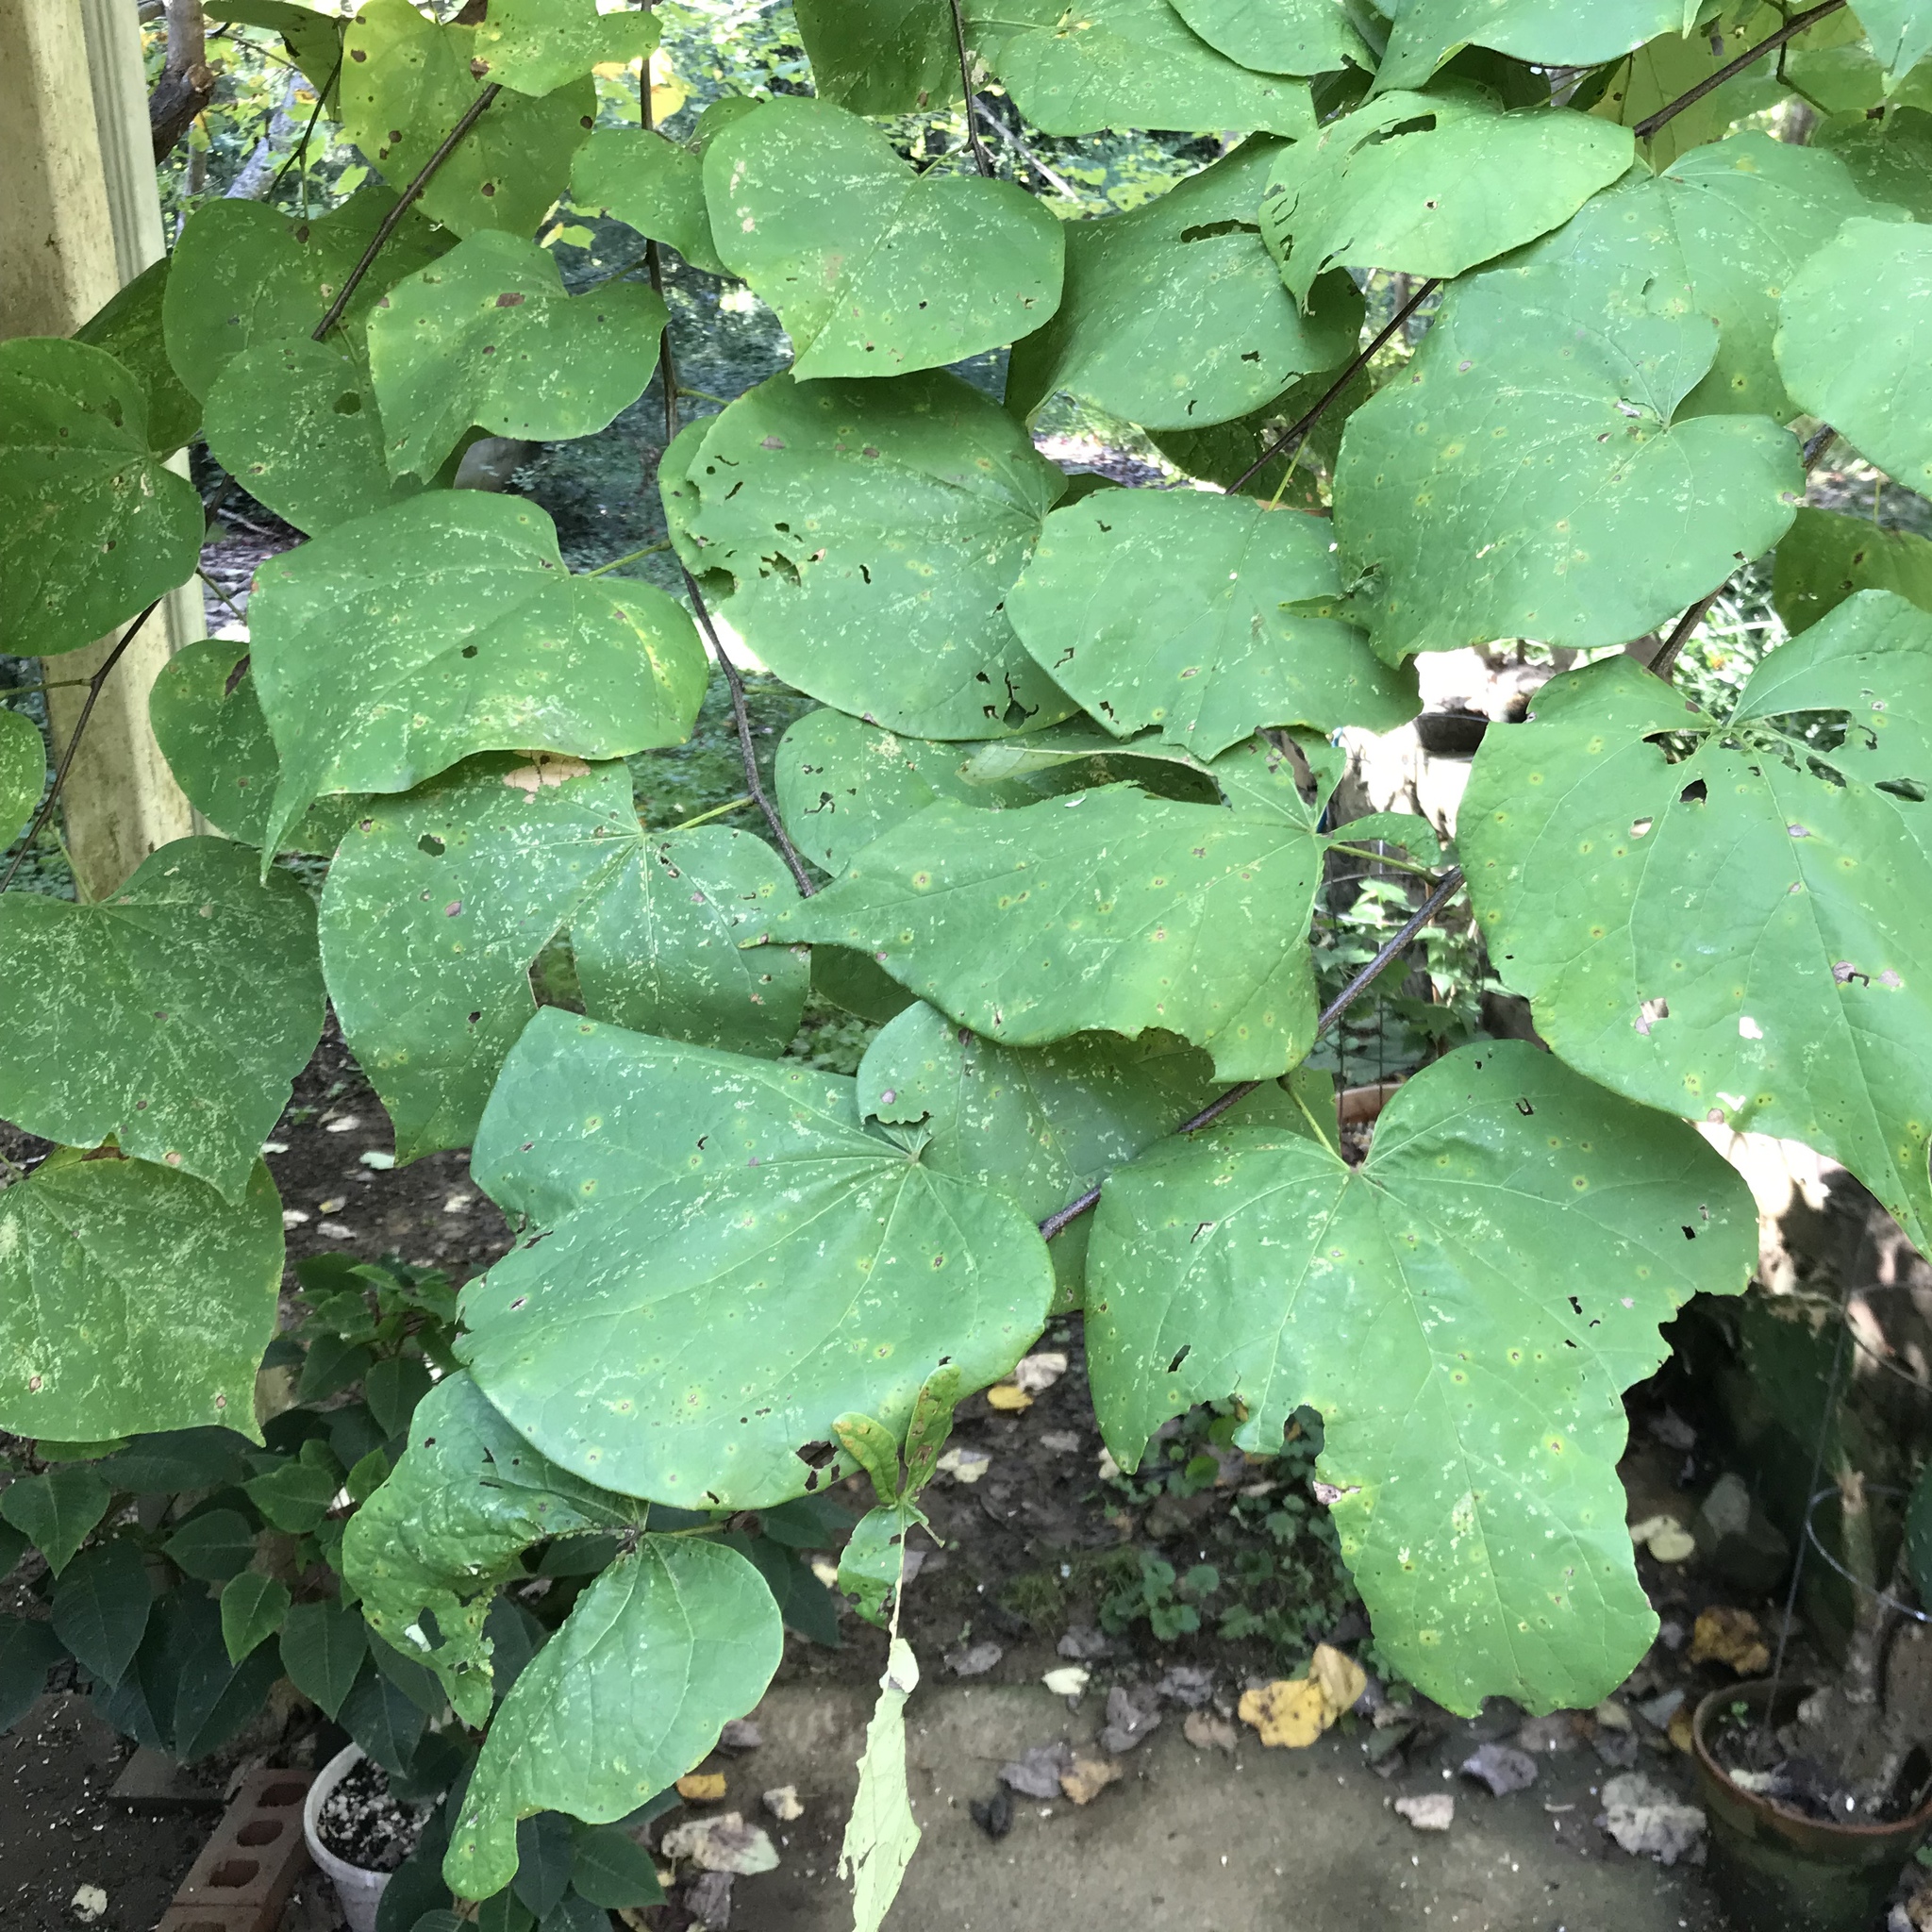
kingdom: Plantae
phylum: Tracheophyta
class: Magnoliopsida
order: Fabales
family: Fabaceae
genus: Cercis
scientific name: Cercis canadensis
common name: Eastern redbud
